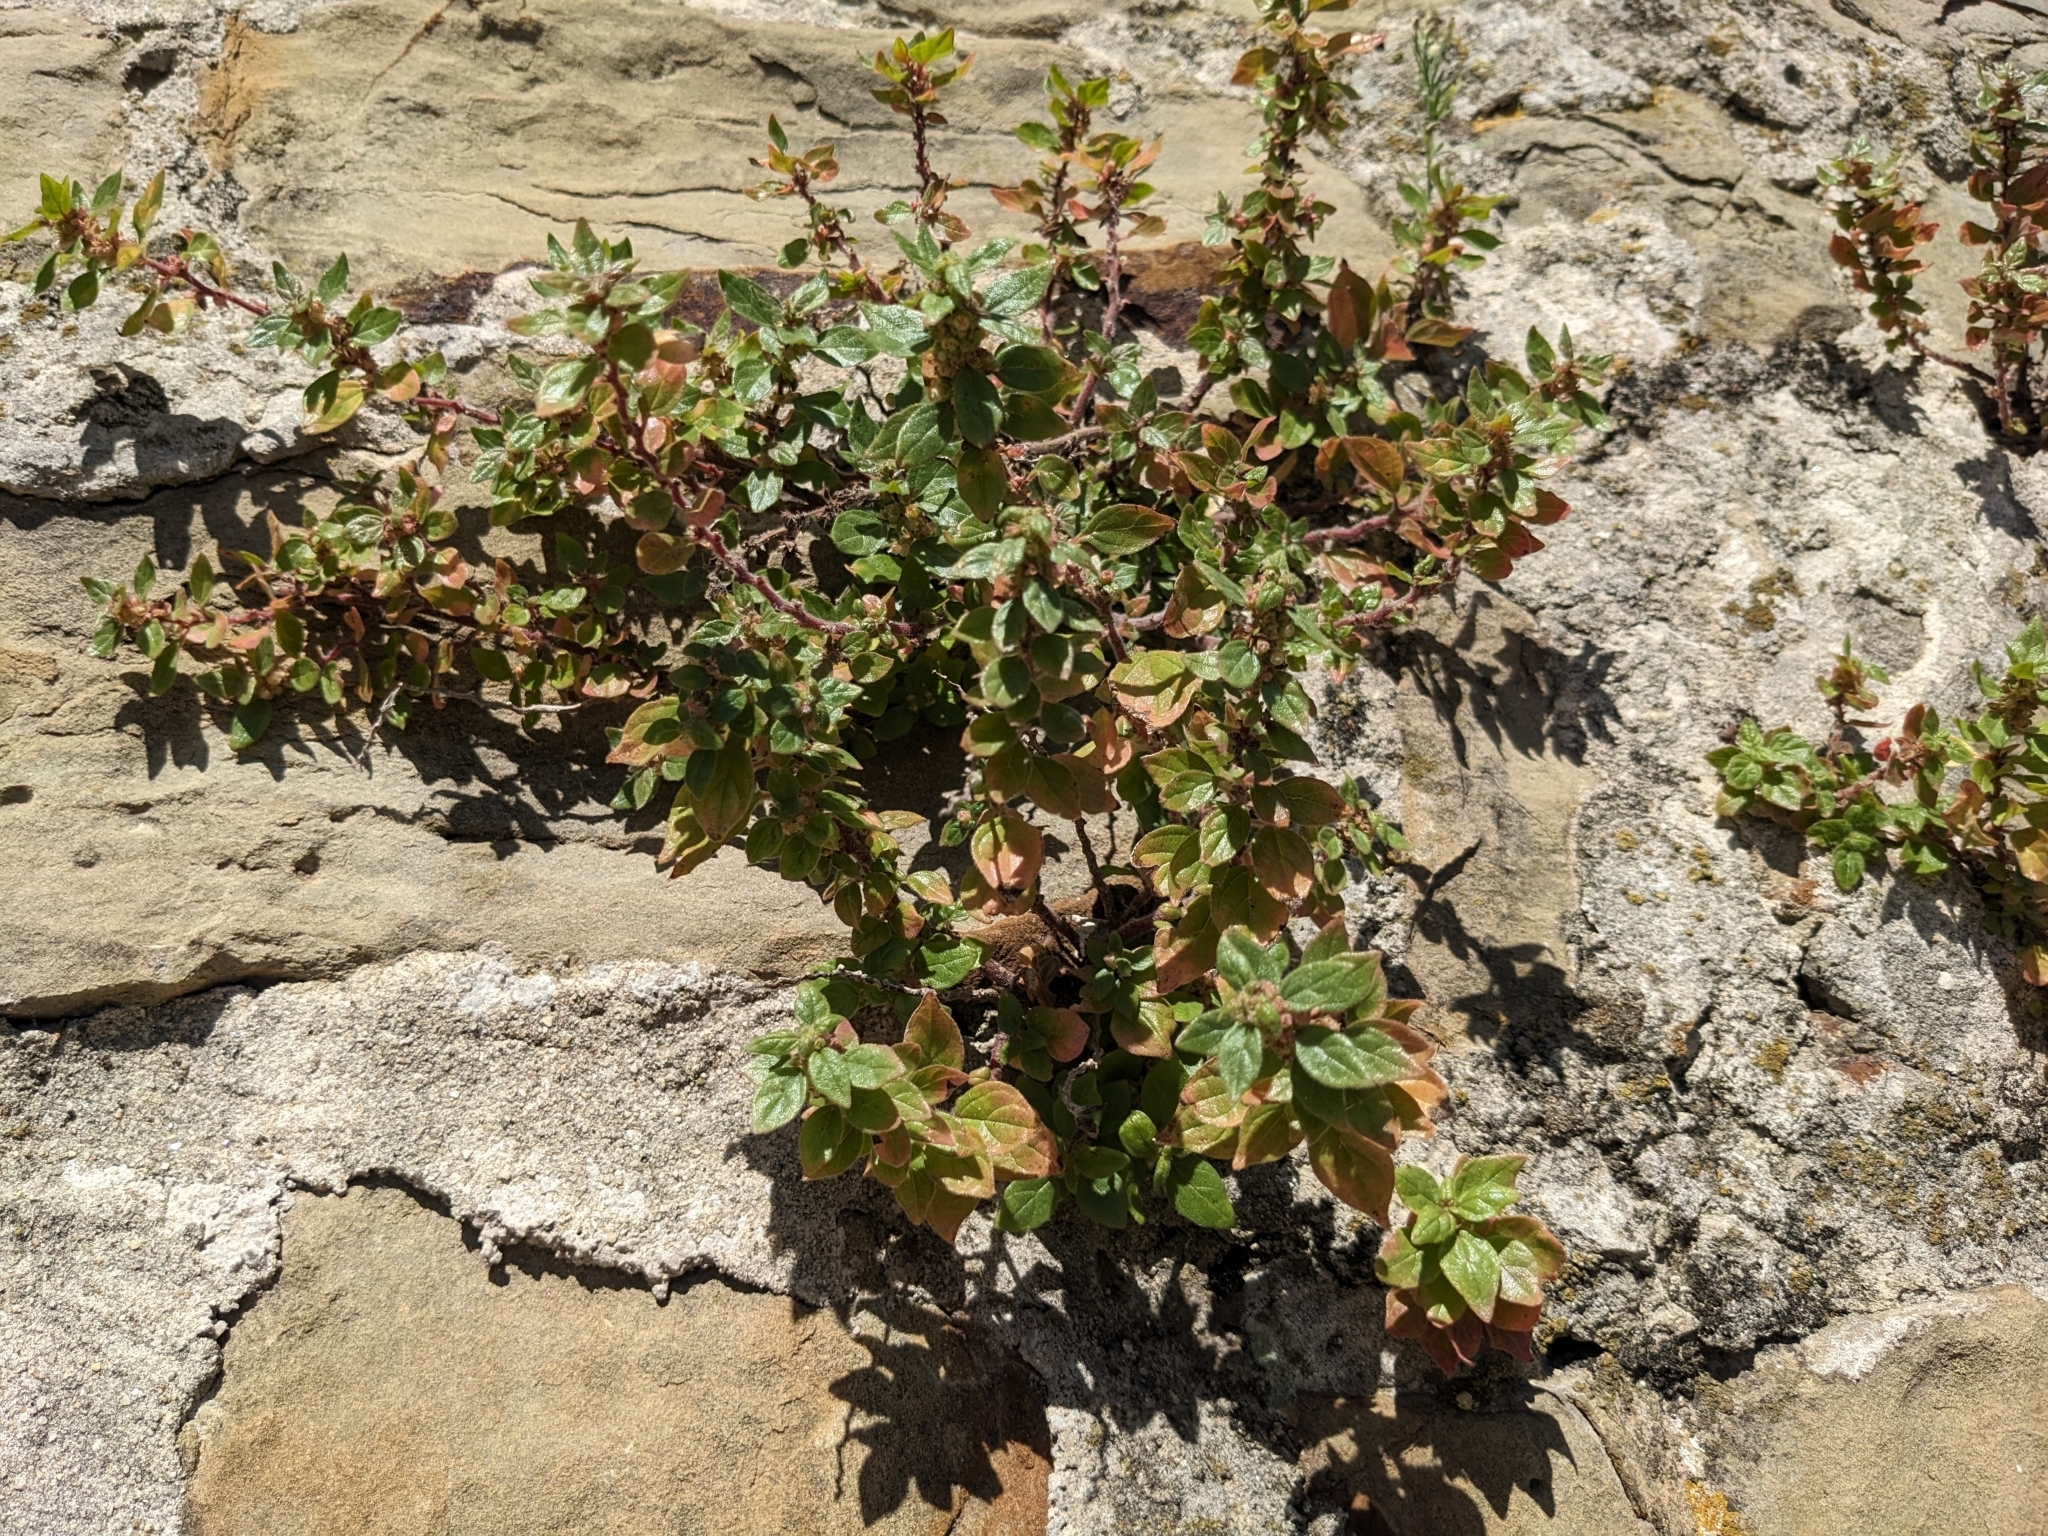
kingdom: Plantae
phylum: Tracheophyta
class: Magnoliopsida
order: Rosales
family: Urticaceae
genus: Parietaria
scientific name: Parietaria judaica
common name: Pellitory-of-the-wall
